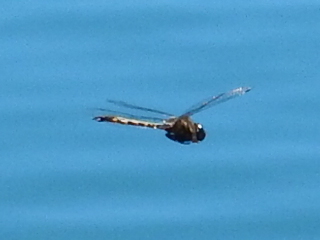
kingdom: Animalia
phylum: Arthropoda
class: Insecta
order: Odonata
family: Corduliidae
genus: Hemicordulia
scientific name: Hemicordulia armstrongi
